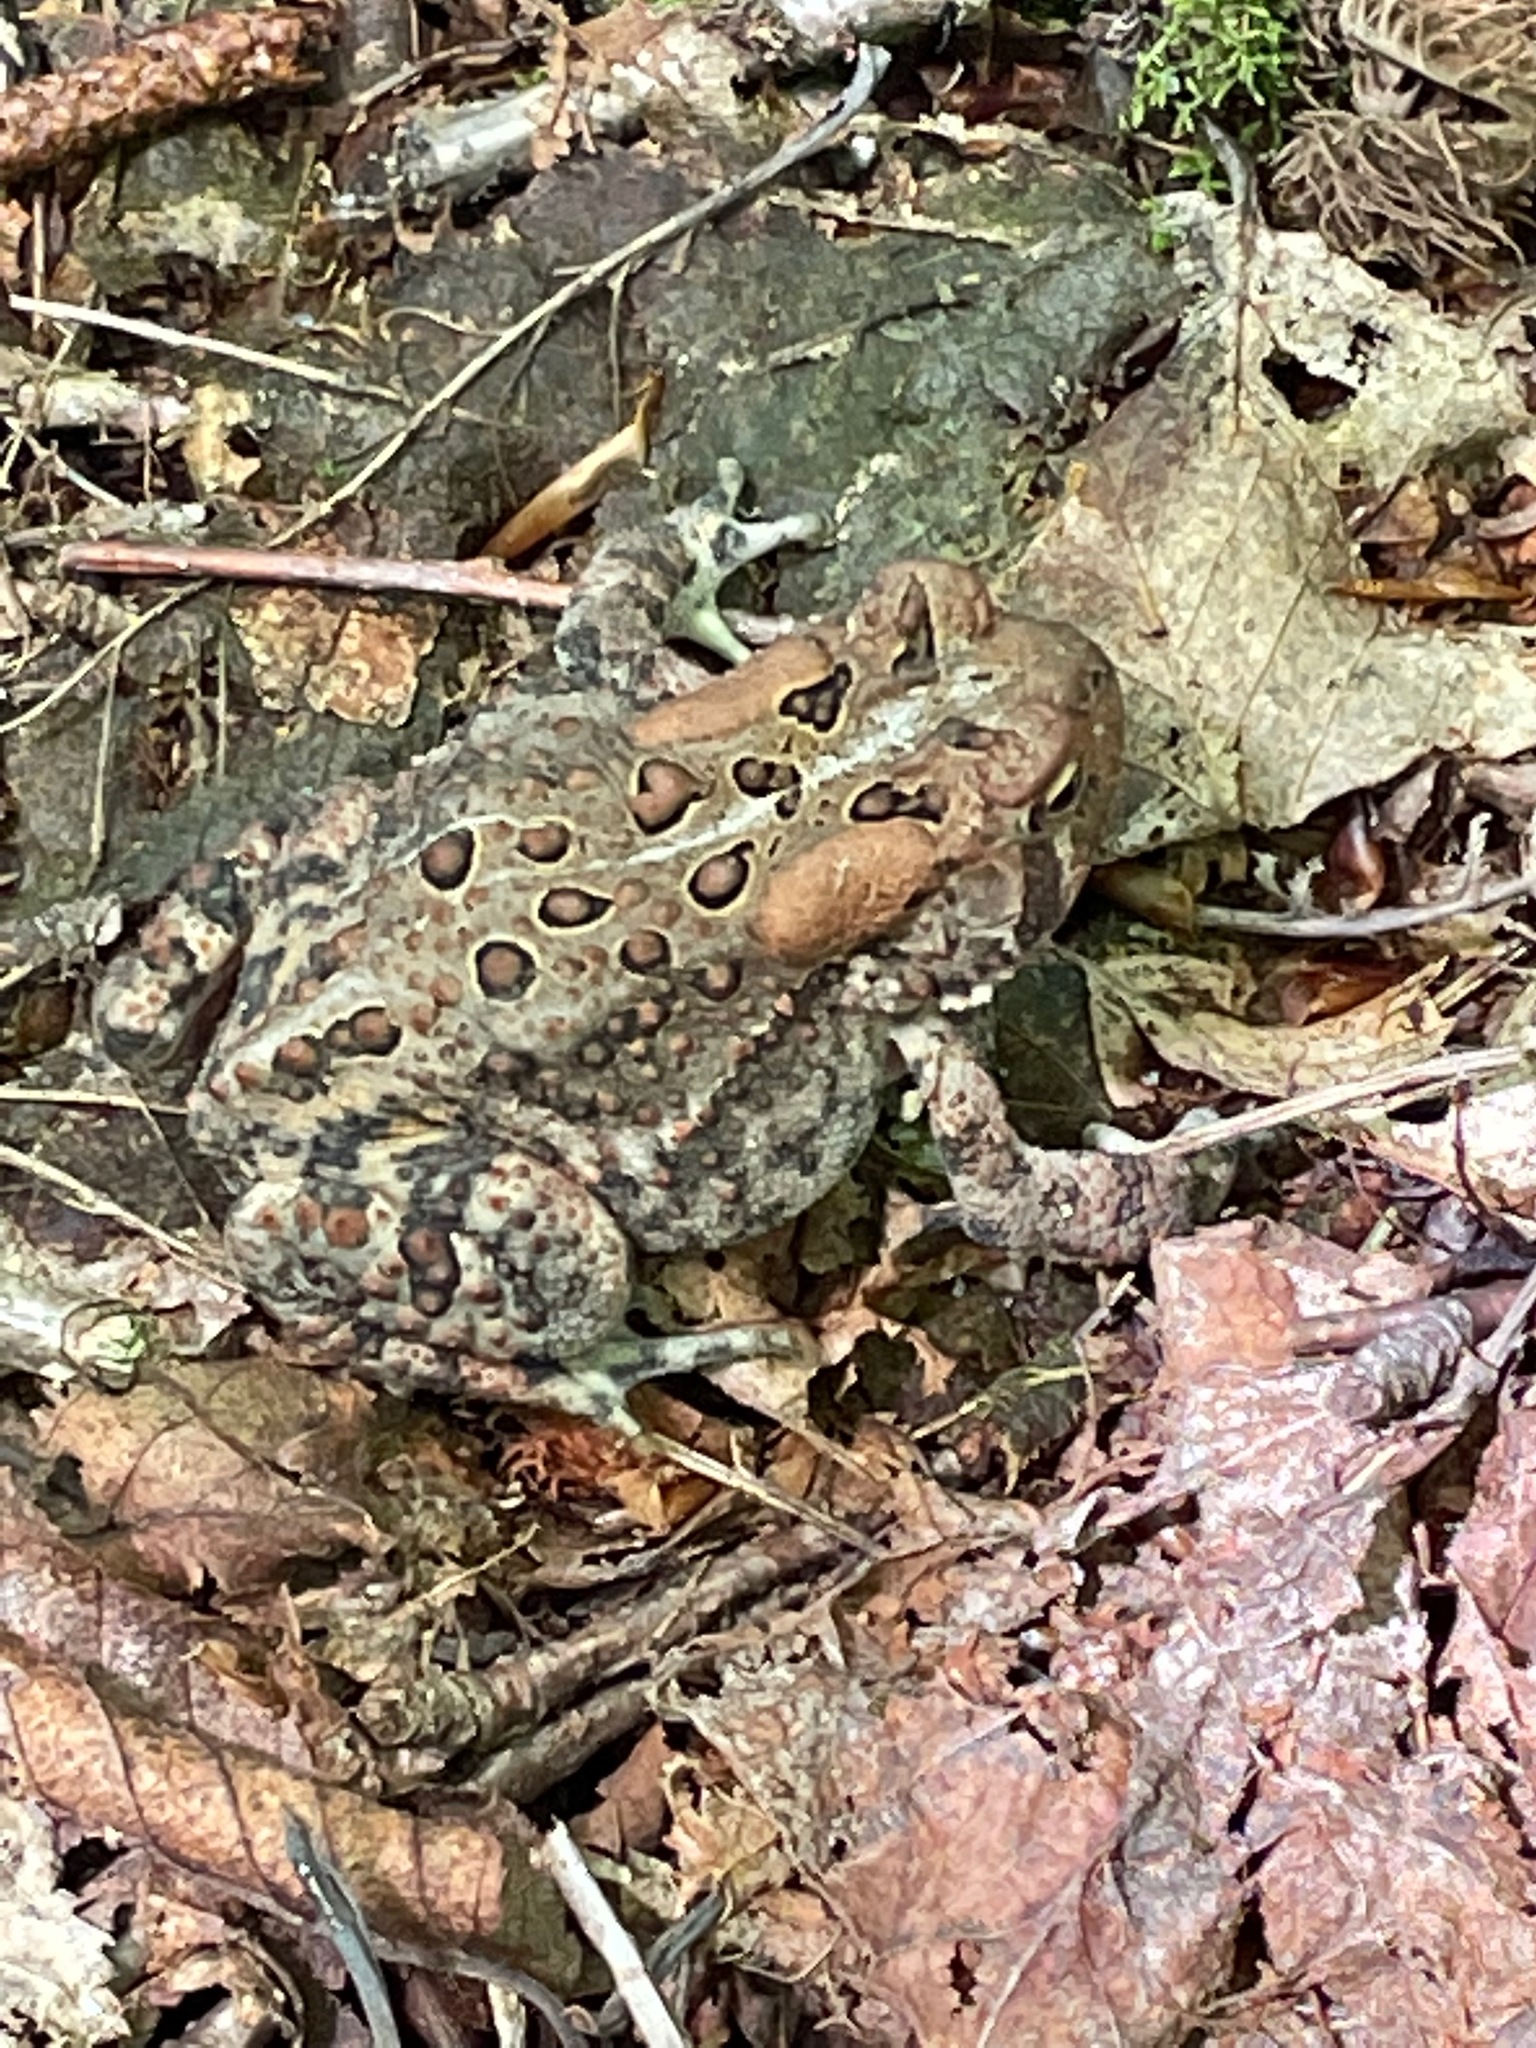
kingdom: Animalia
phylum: Chordata
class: Amphibia
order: Anura
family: Bufonidae
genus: Anaxyrus
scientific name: Anaxyrus americanus
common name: American toad
